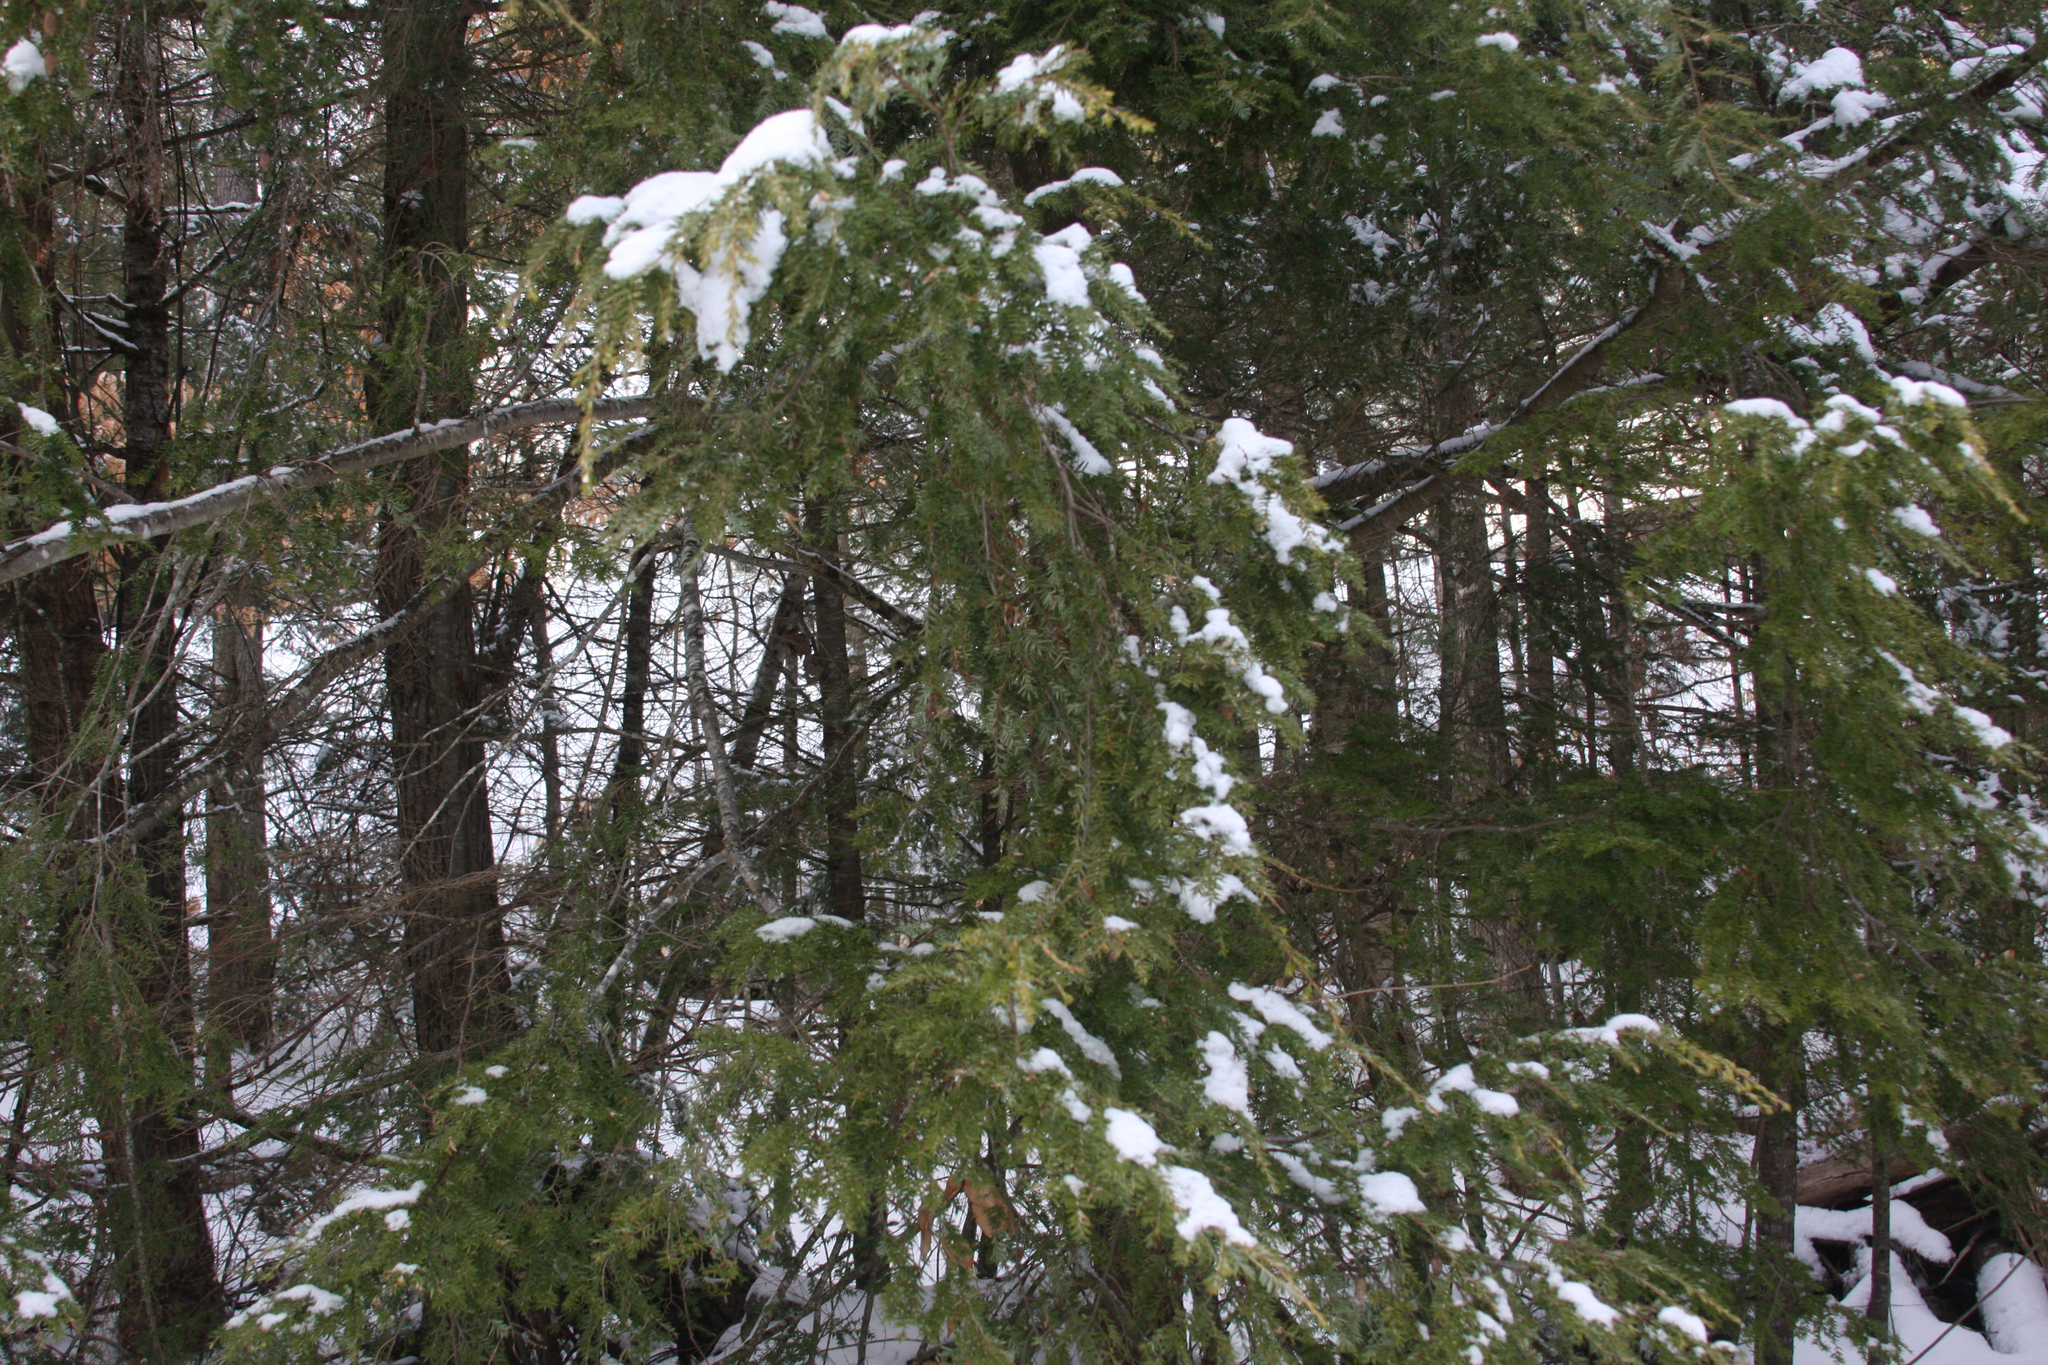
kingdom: Plantae
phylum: Tracheophyta
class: Pinopsida
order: Pinales
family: Pinaceae
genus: Tsuga
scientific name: Tsuga canadensis
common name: Eastern hemlock
